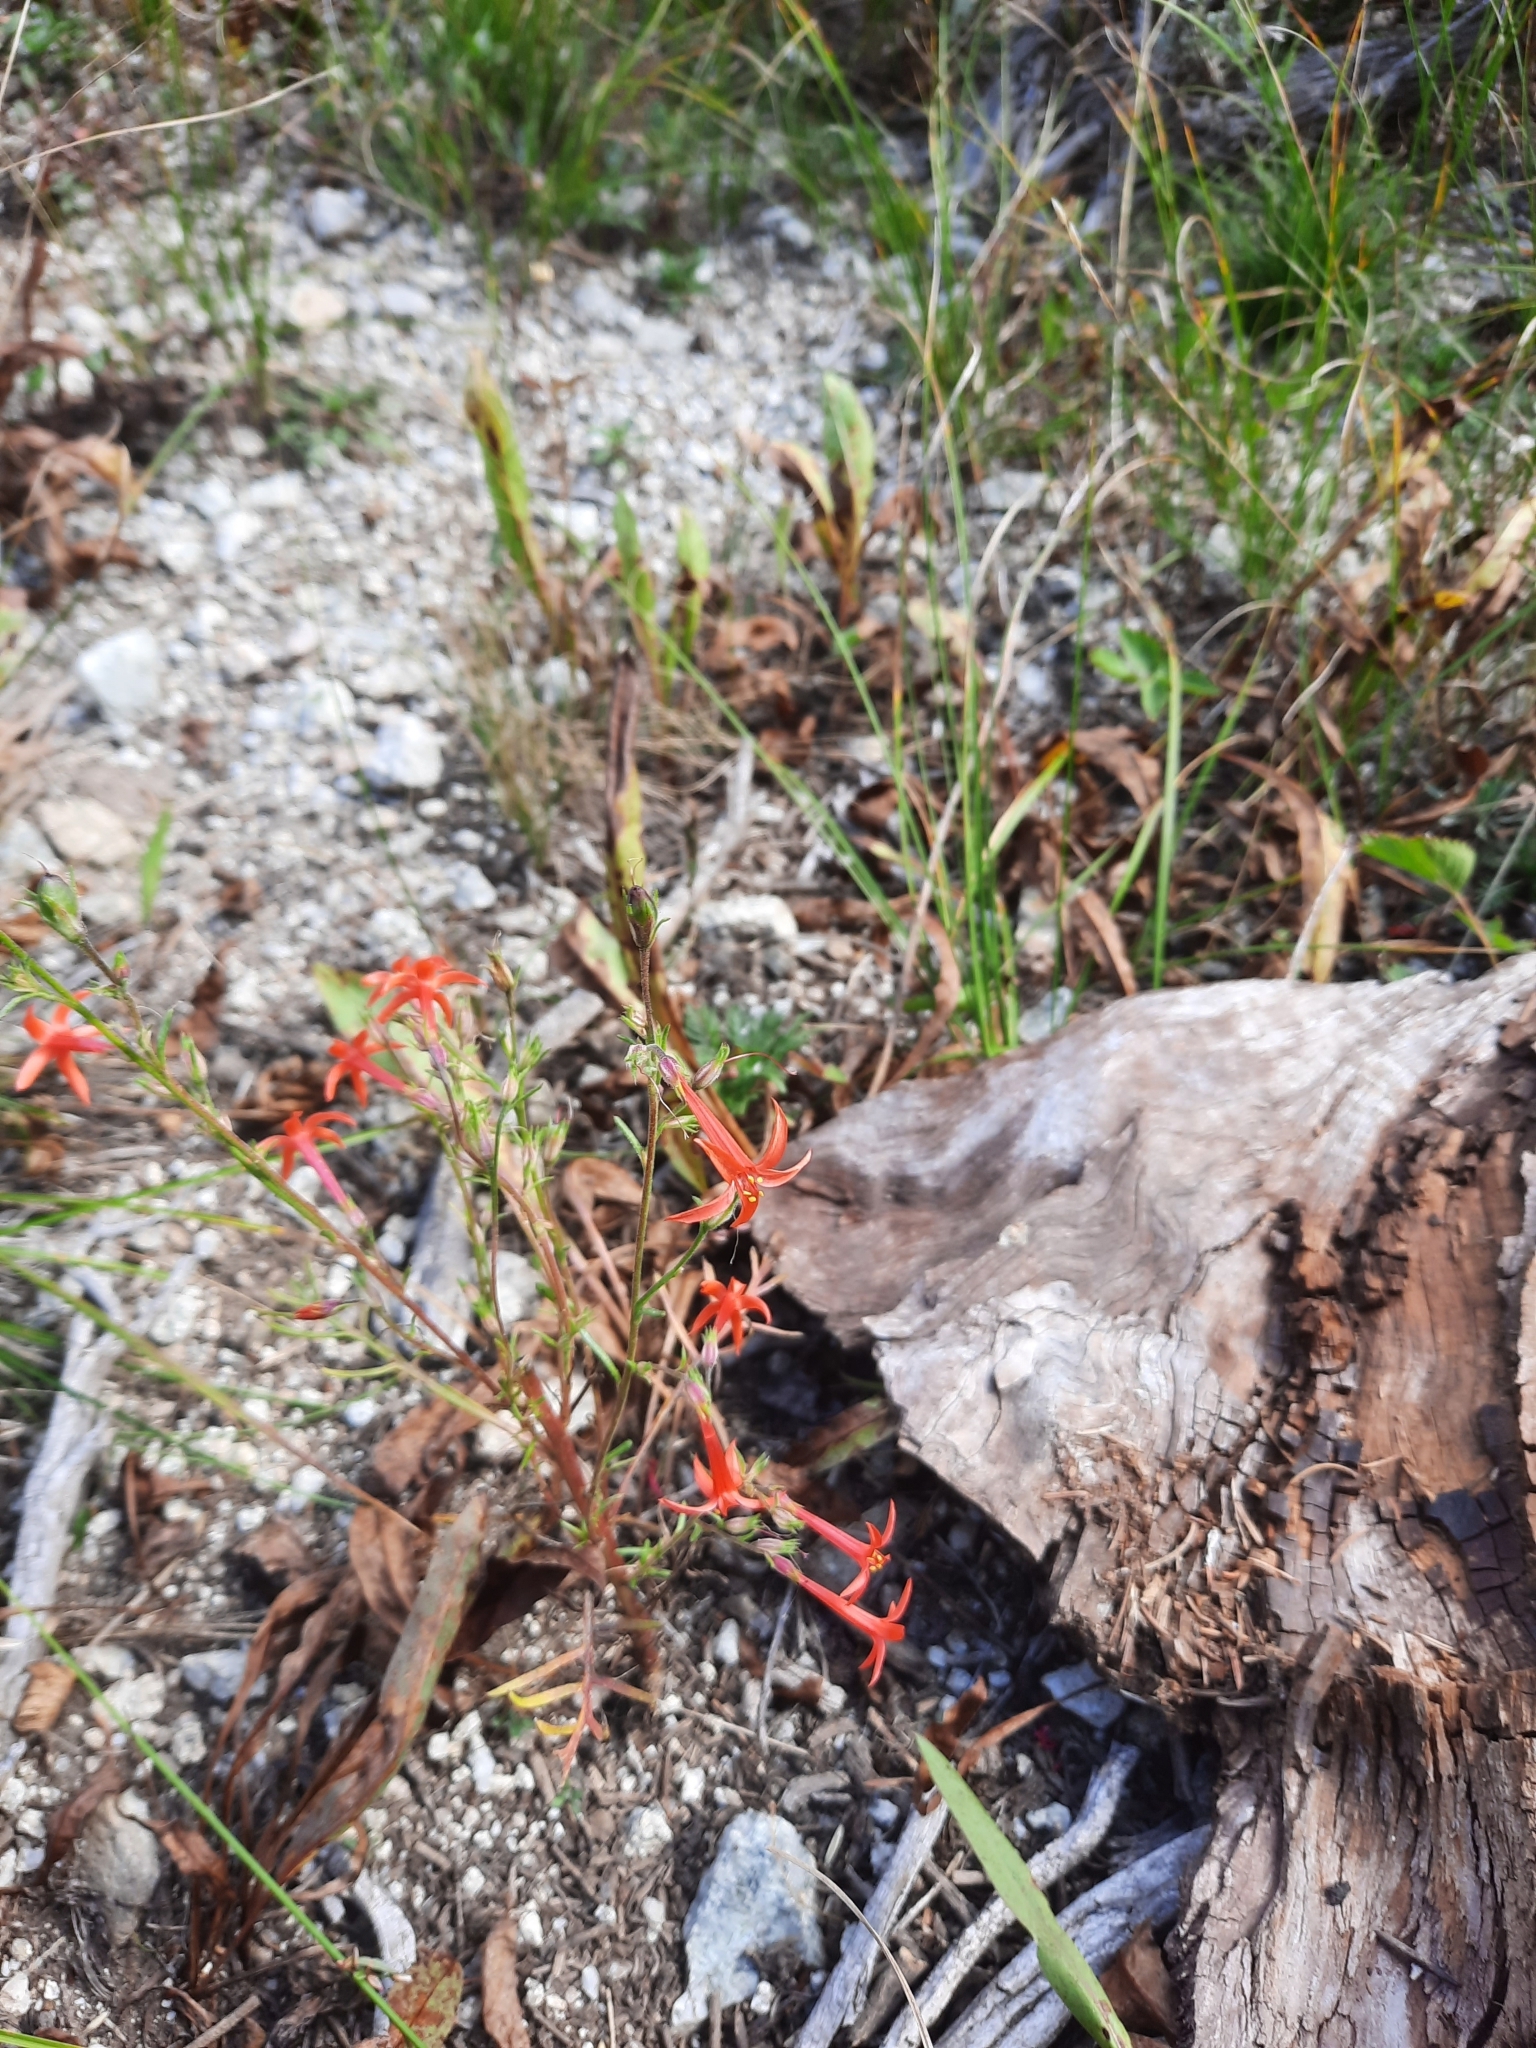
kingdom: Plantae
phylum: Tracheophyta
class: Magnoliopsida
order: Ericales
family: Polemoniaceae
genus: Ipomopsis
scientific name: Ipomopsis aggregata
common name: Scarlet gilia
